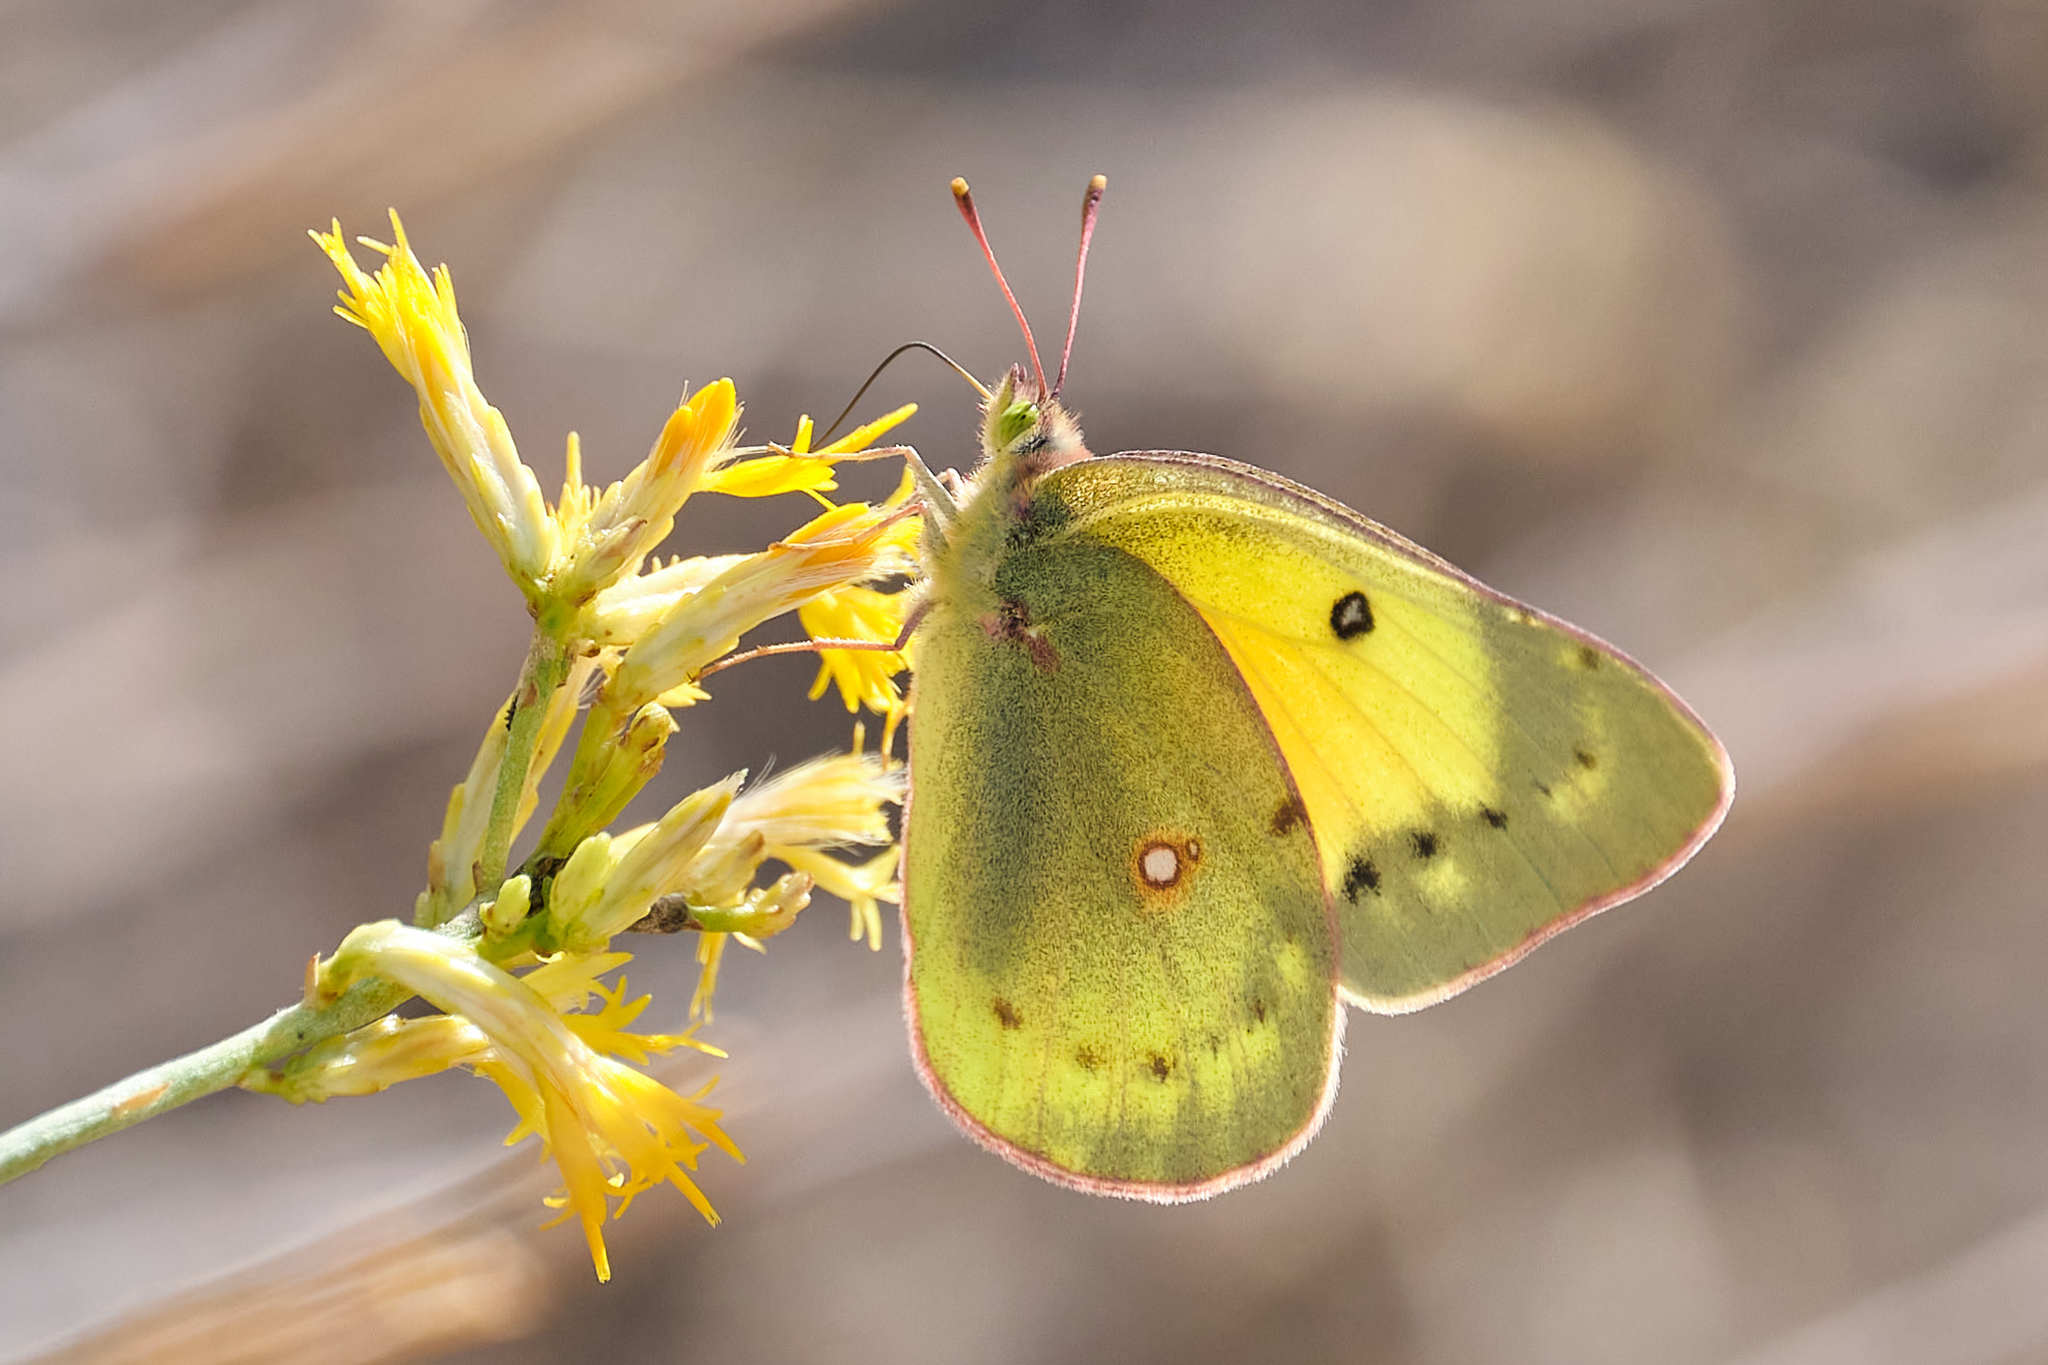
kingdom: Animalia
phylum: Arthropoda
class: Insecta
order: Lepidoptera
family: Pieridae
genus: Colias
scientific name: Colias eurytheme
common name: Alfalfa butterfly
